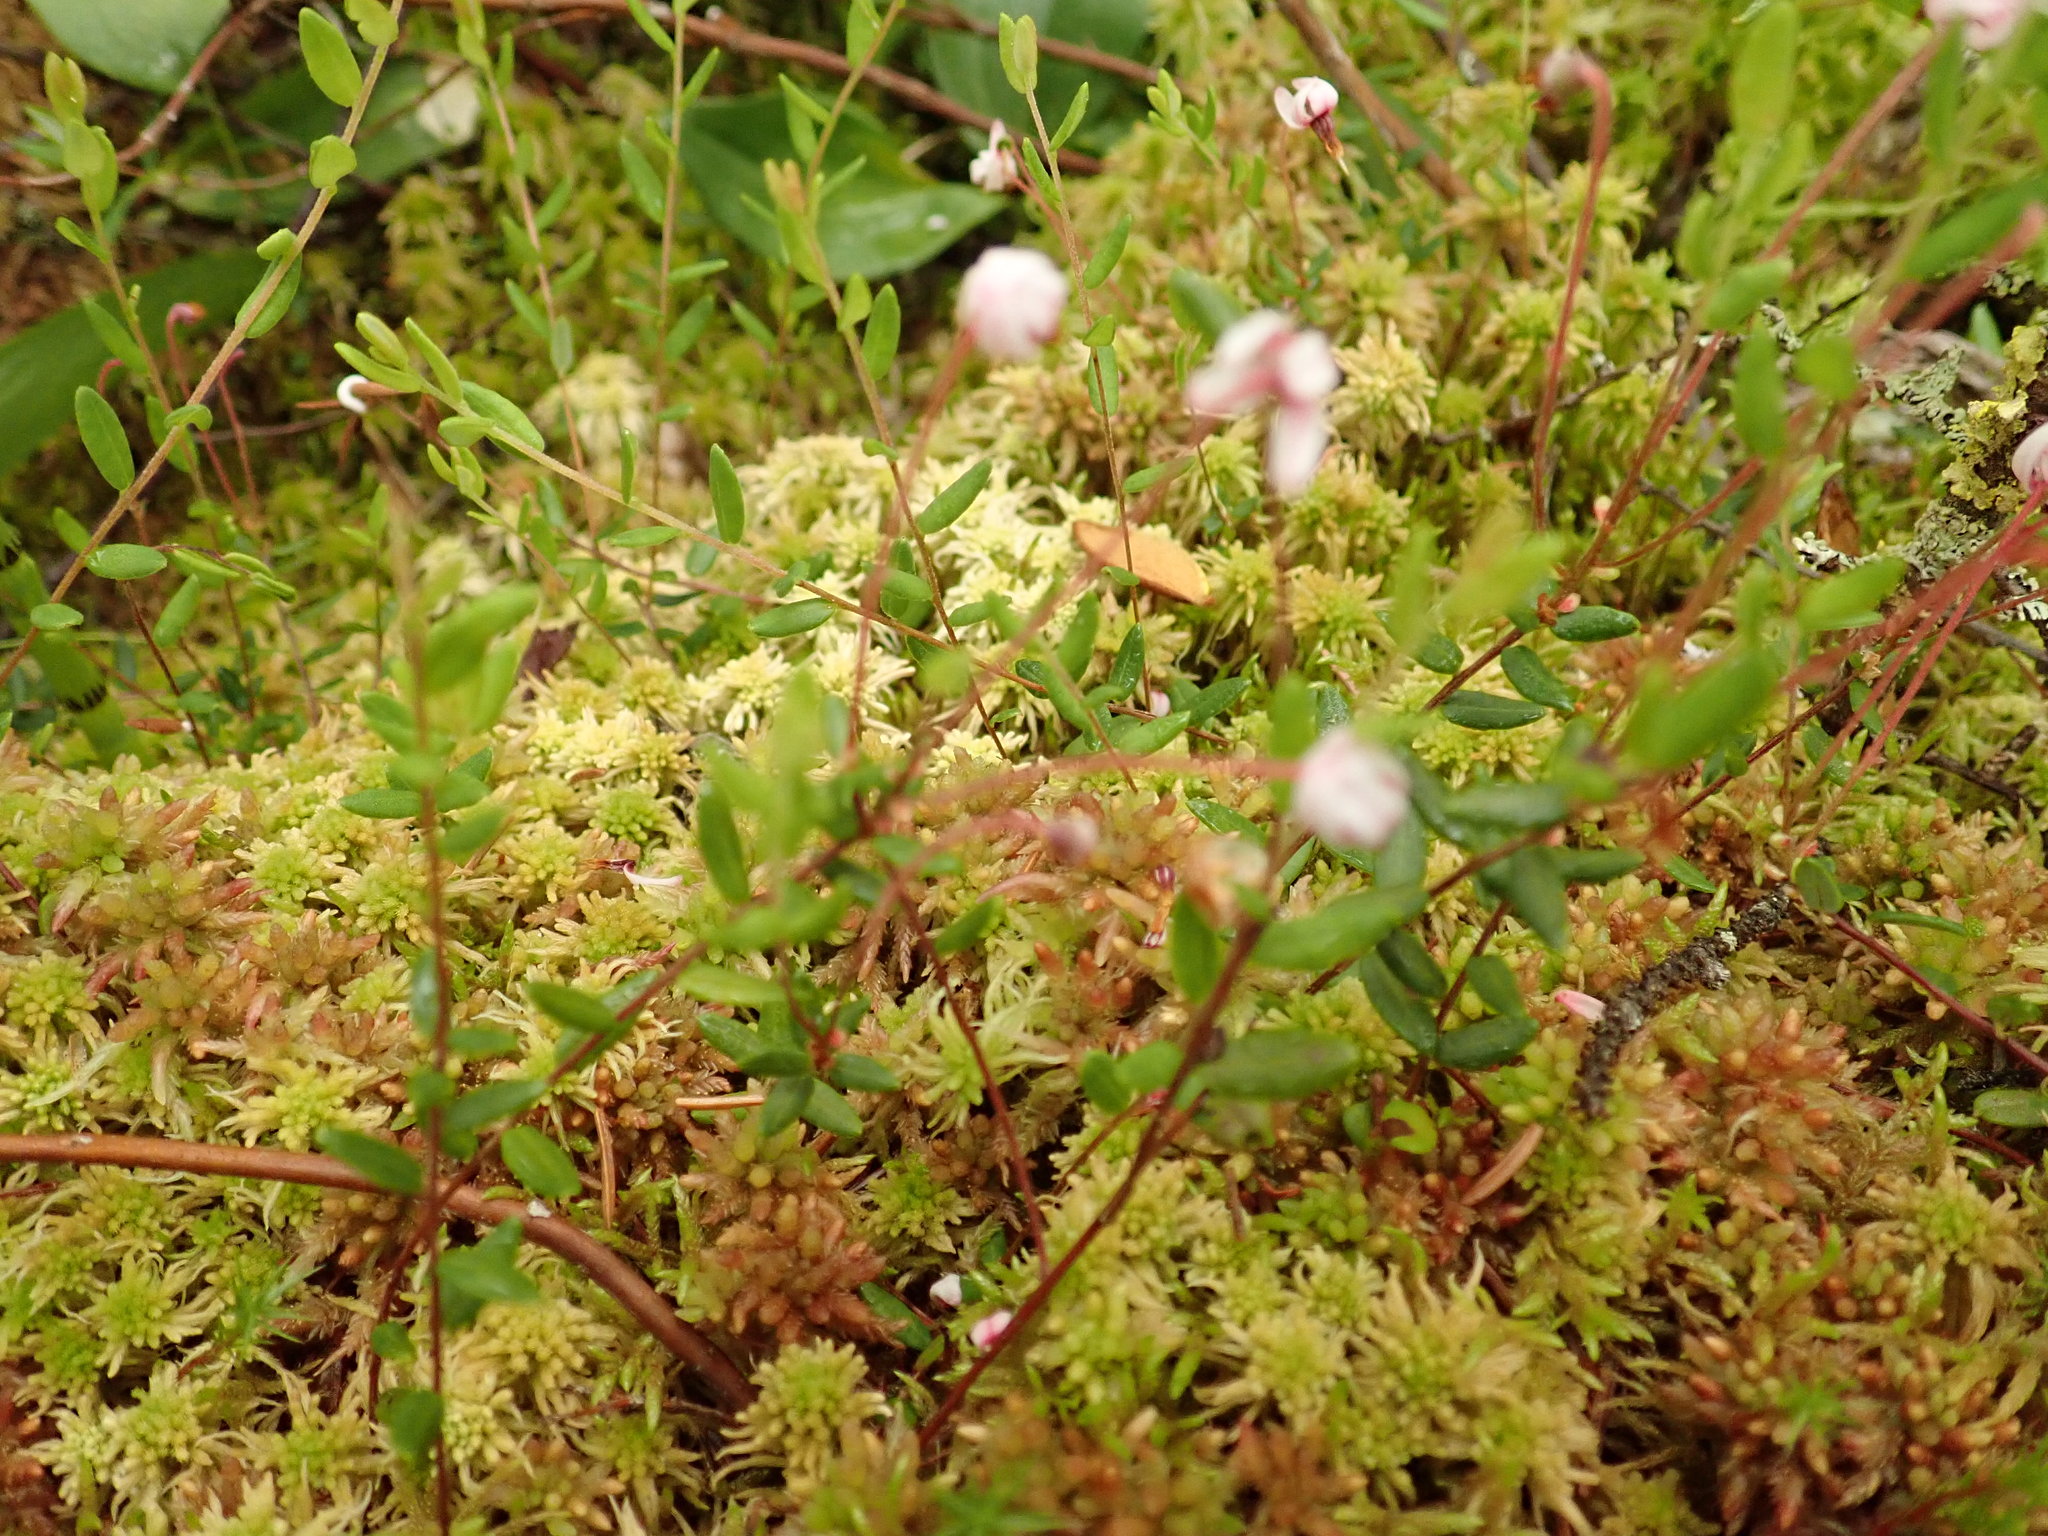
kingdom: Plantae
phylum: Tracheophyta
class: Magnoliopsida
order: Ericales
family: Ericaceae
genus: Vaccinium
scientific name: Vaccinium oxycoccos
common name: Cranberry
